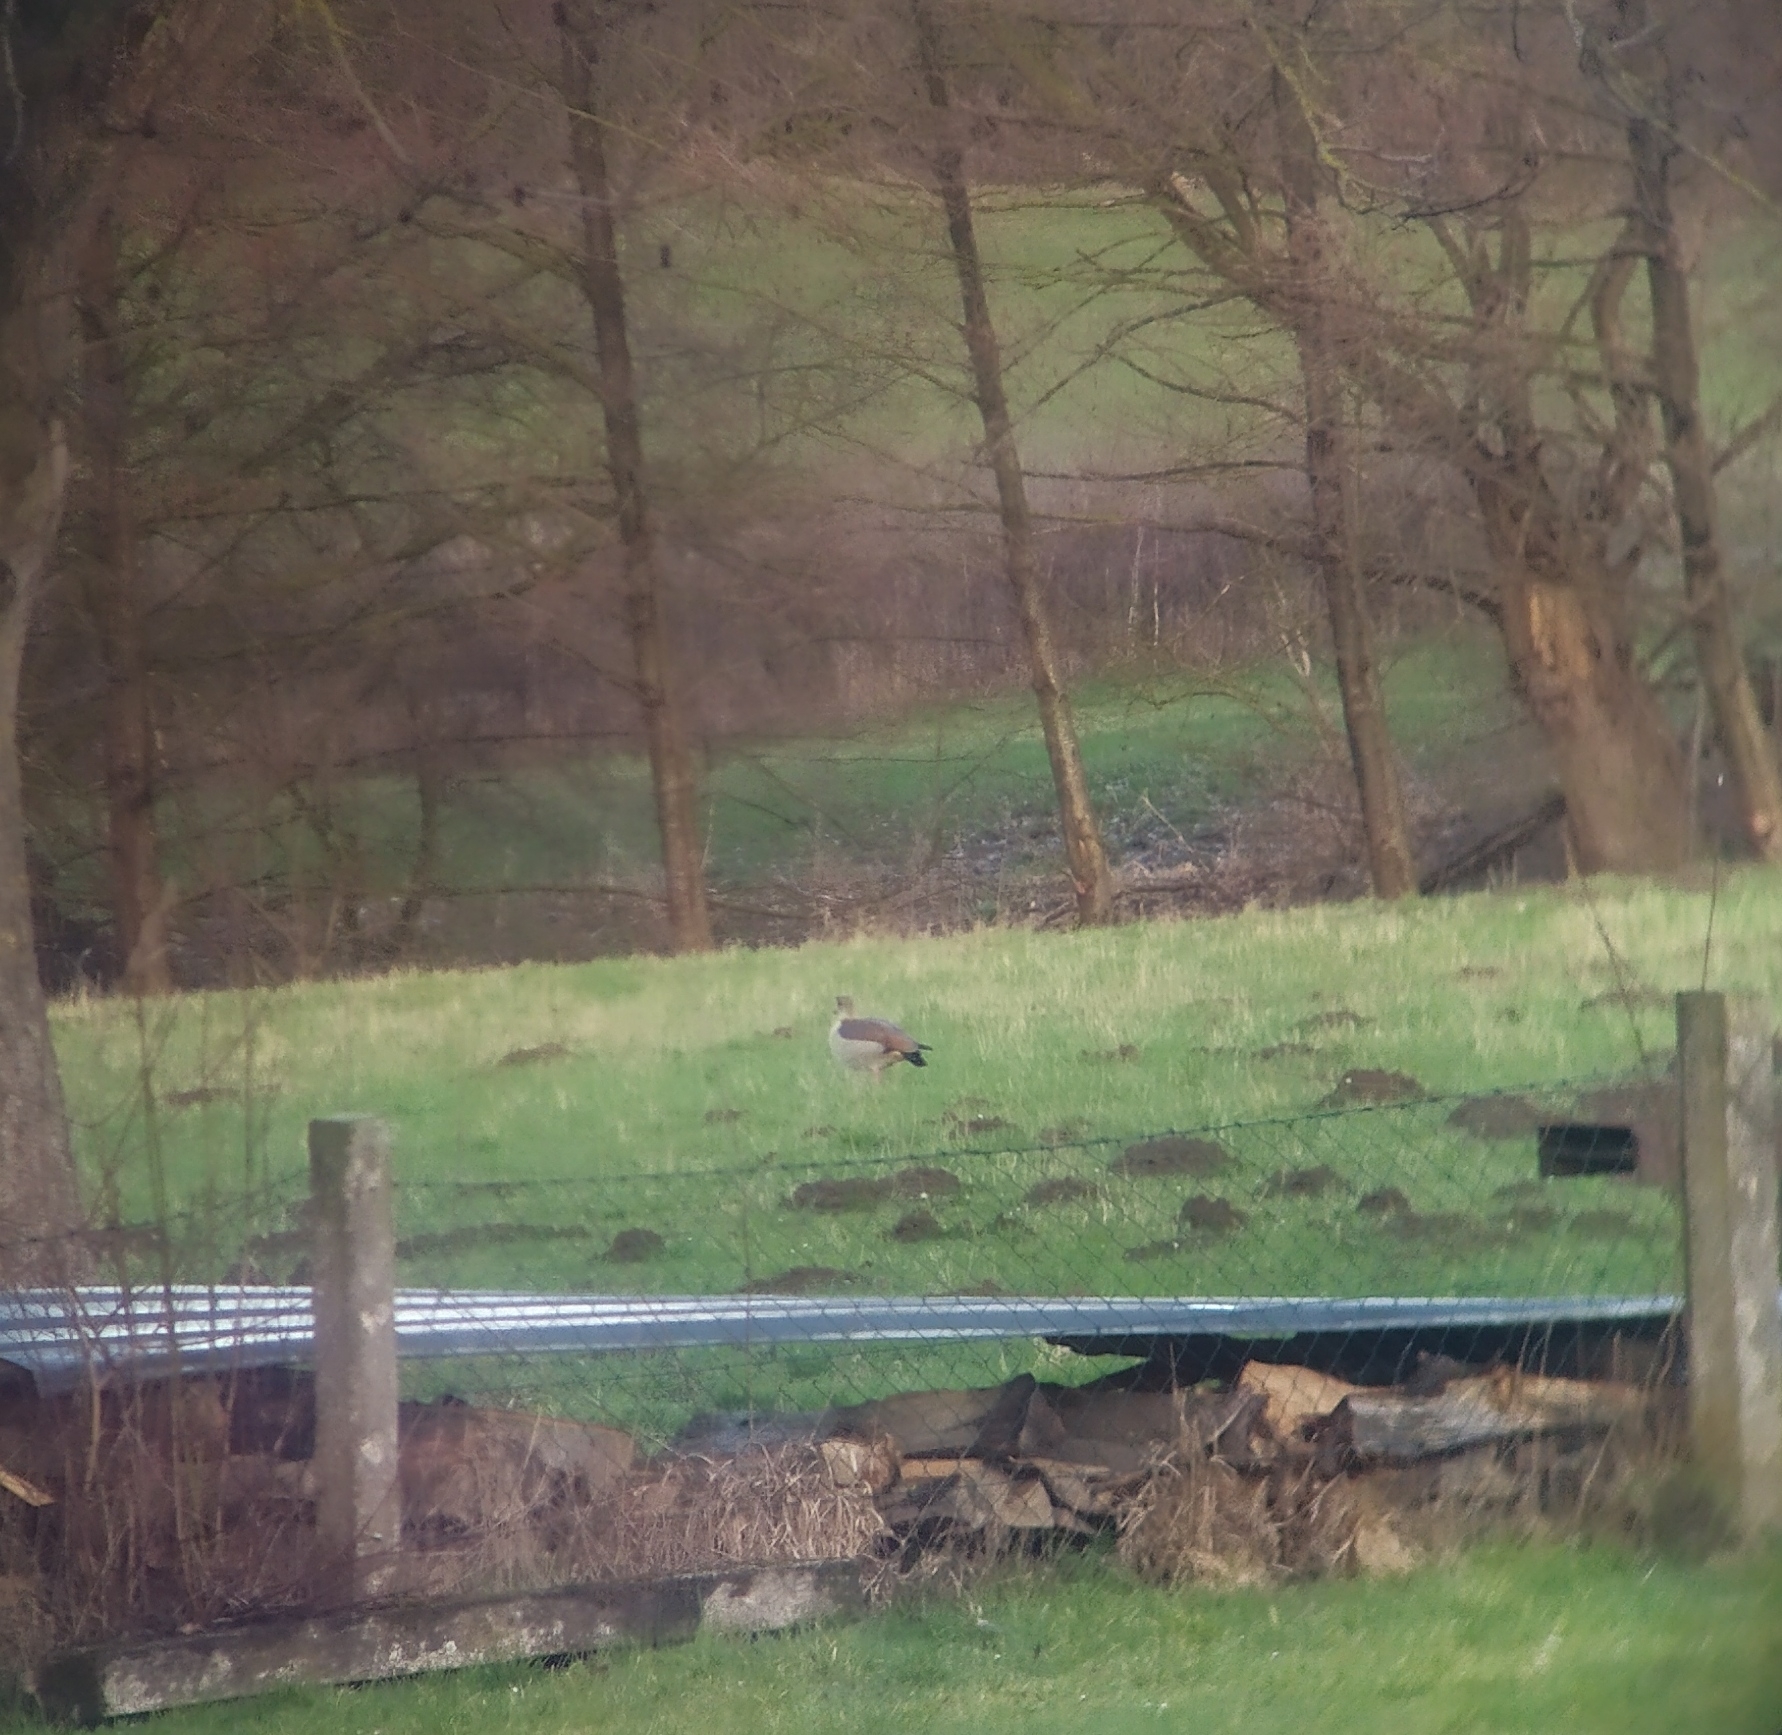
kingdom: Animalia
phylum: Chordata
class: Aves
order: Anseriformes
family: Anatidae
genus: Alopochen
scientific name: Alopochen aegyptiaca
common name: Egyptian goose
